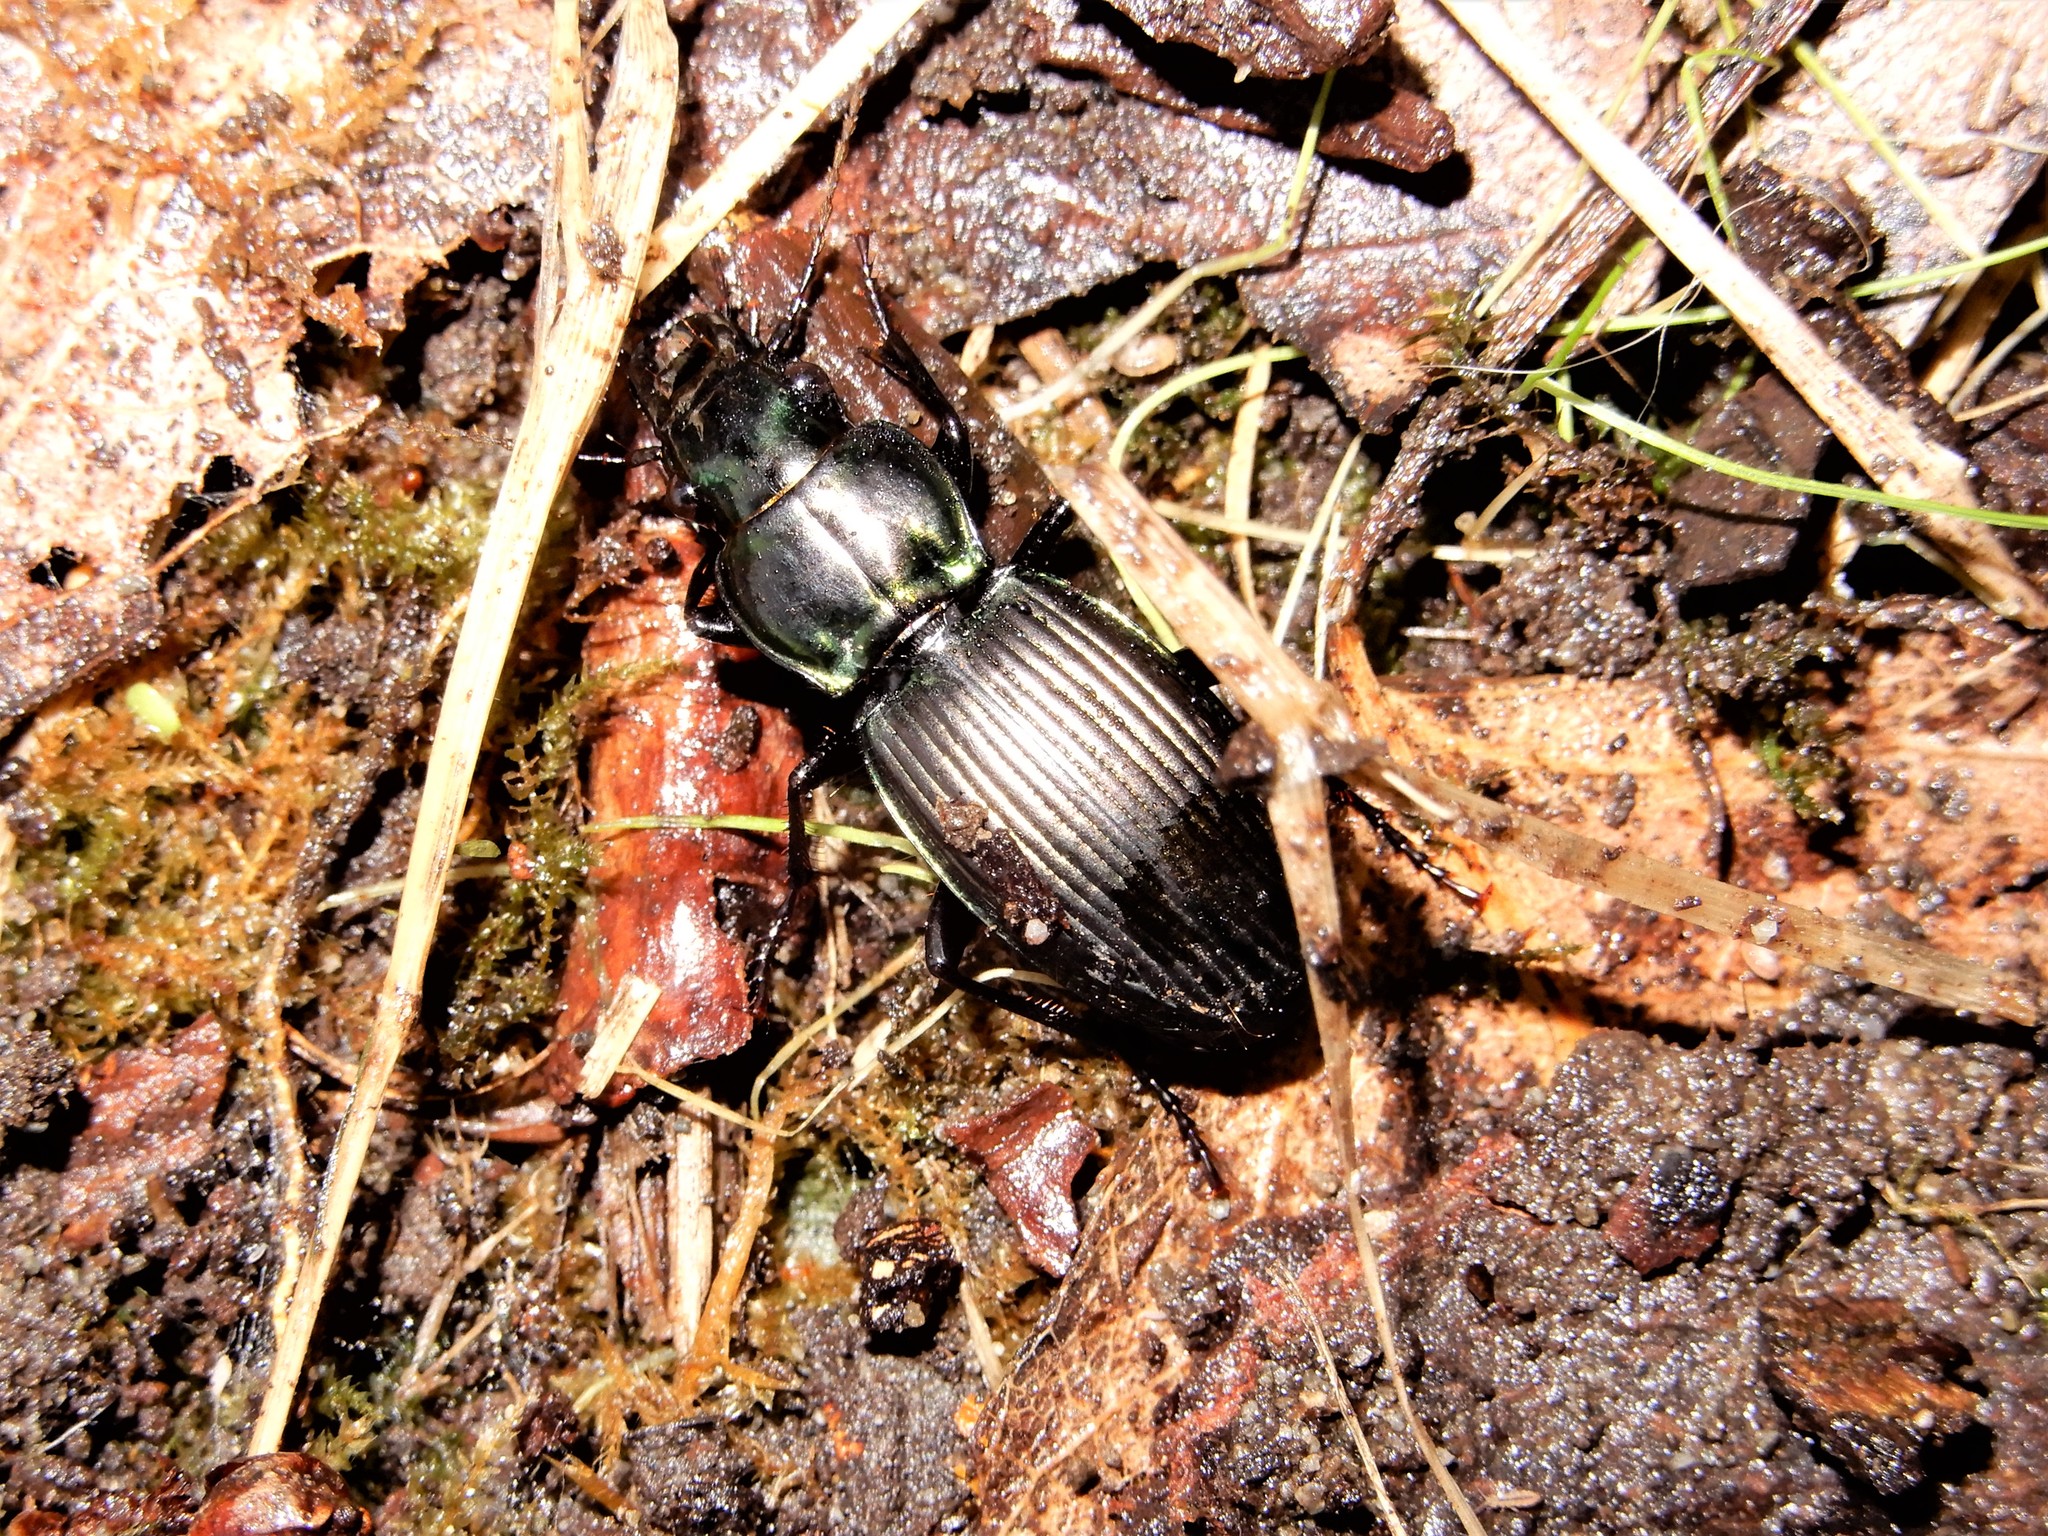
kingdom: Animalia
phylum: Arthropoda
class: Insecta
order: Coleoptera
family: Carabidae
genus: Megadromus
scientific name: Megadromus capito
